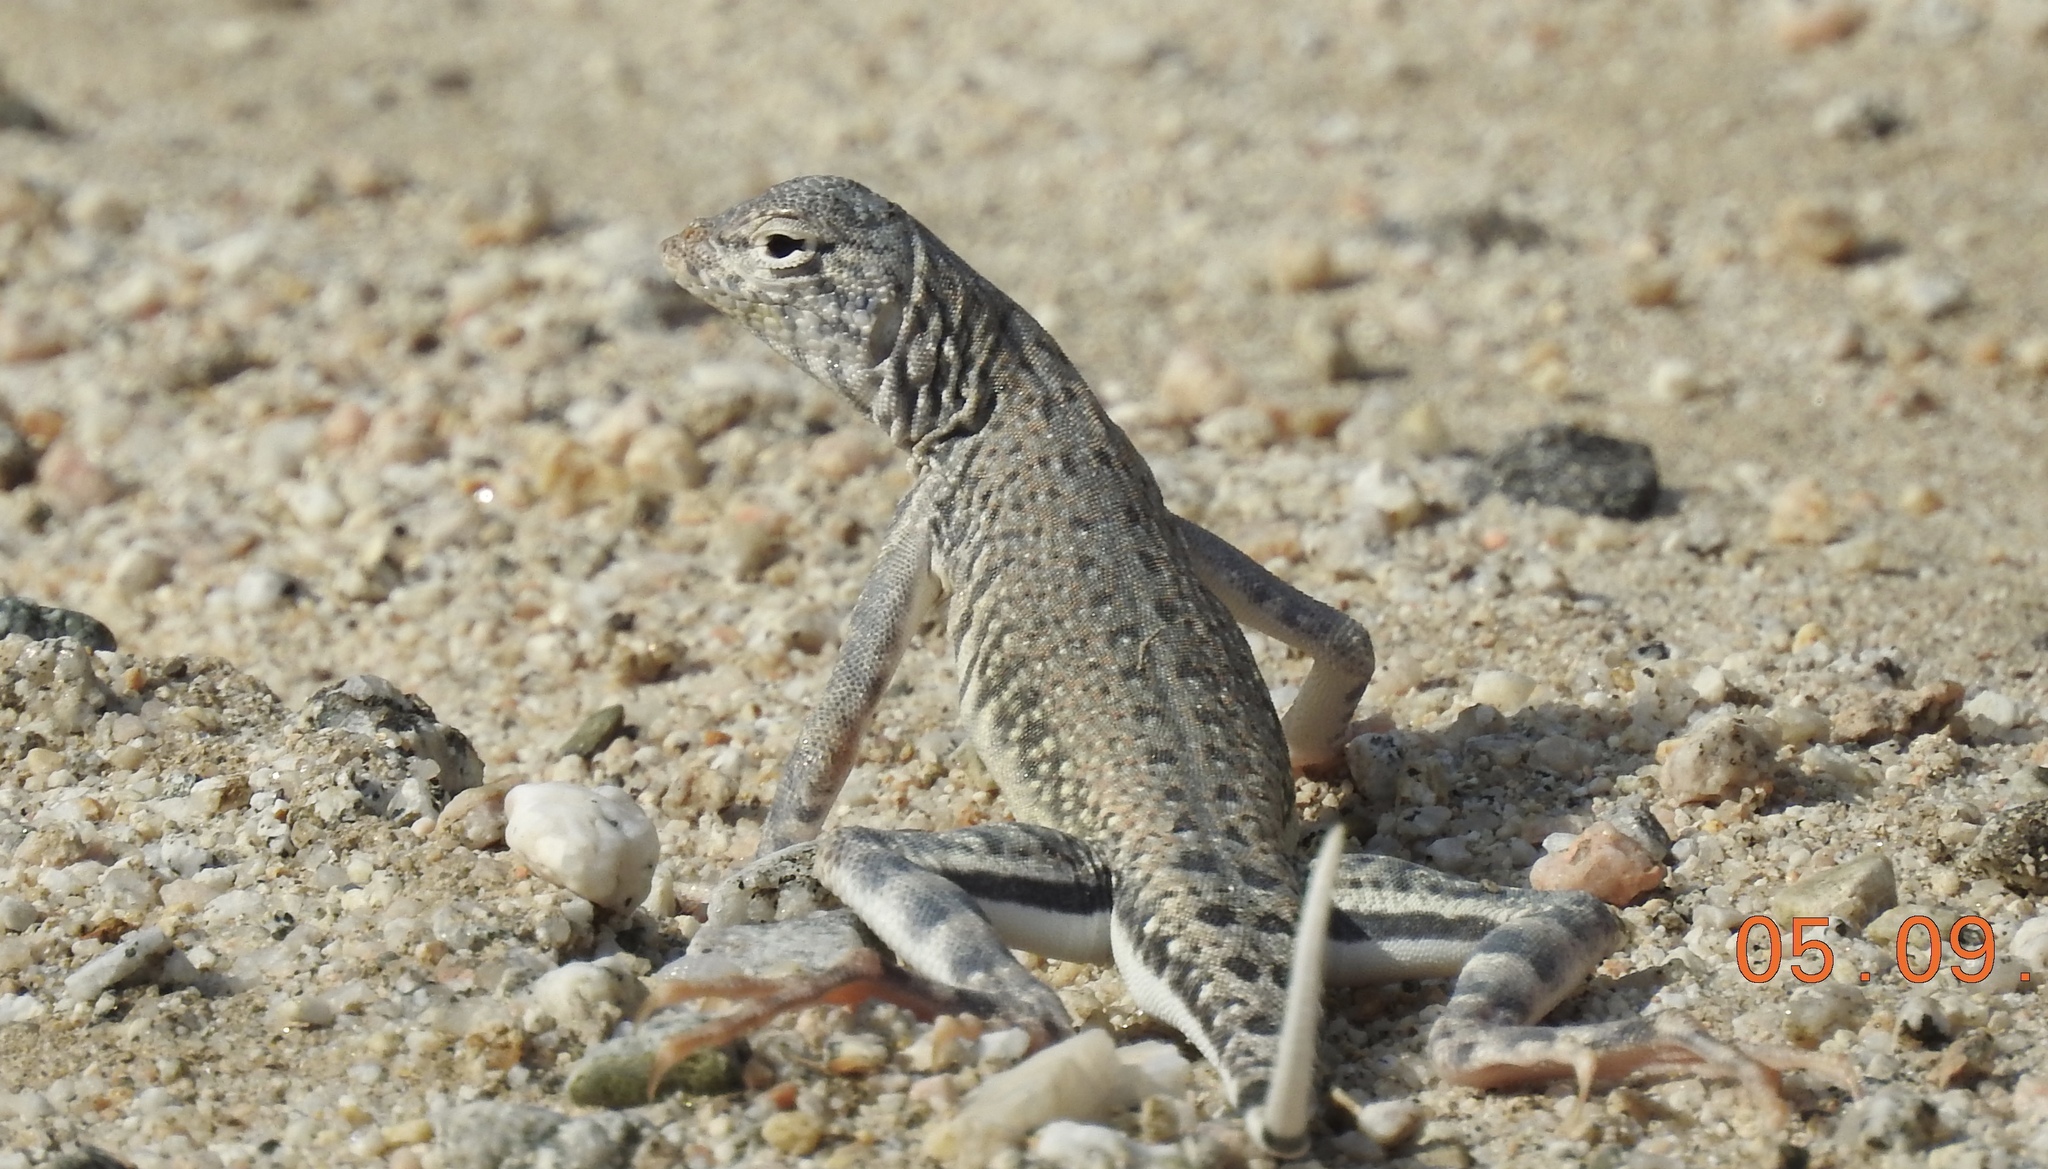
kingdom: Animalia
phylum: Chordata
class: Squamata
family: Phrynosomatidae
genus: Callisaurus
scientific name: Callisaurus draconoides
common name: Zebra-tailed lizard
